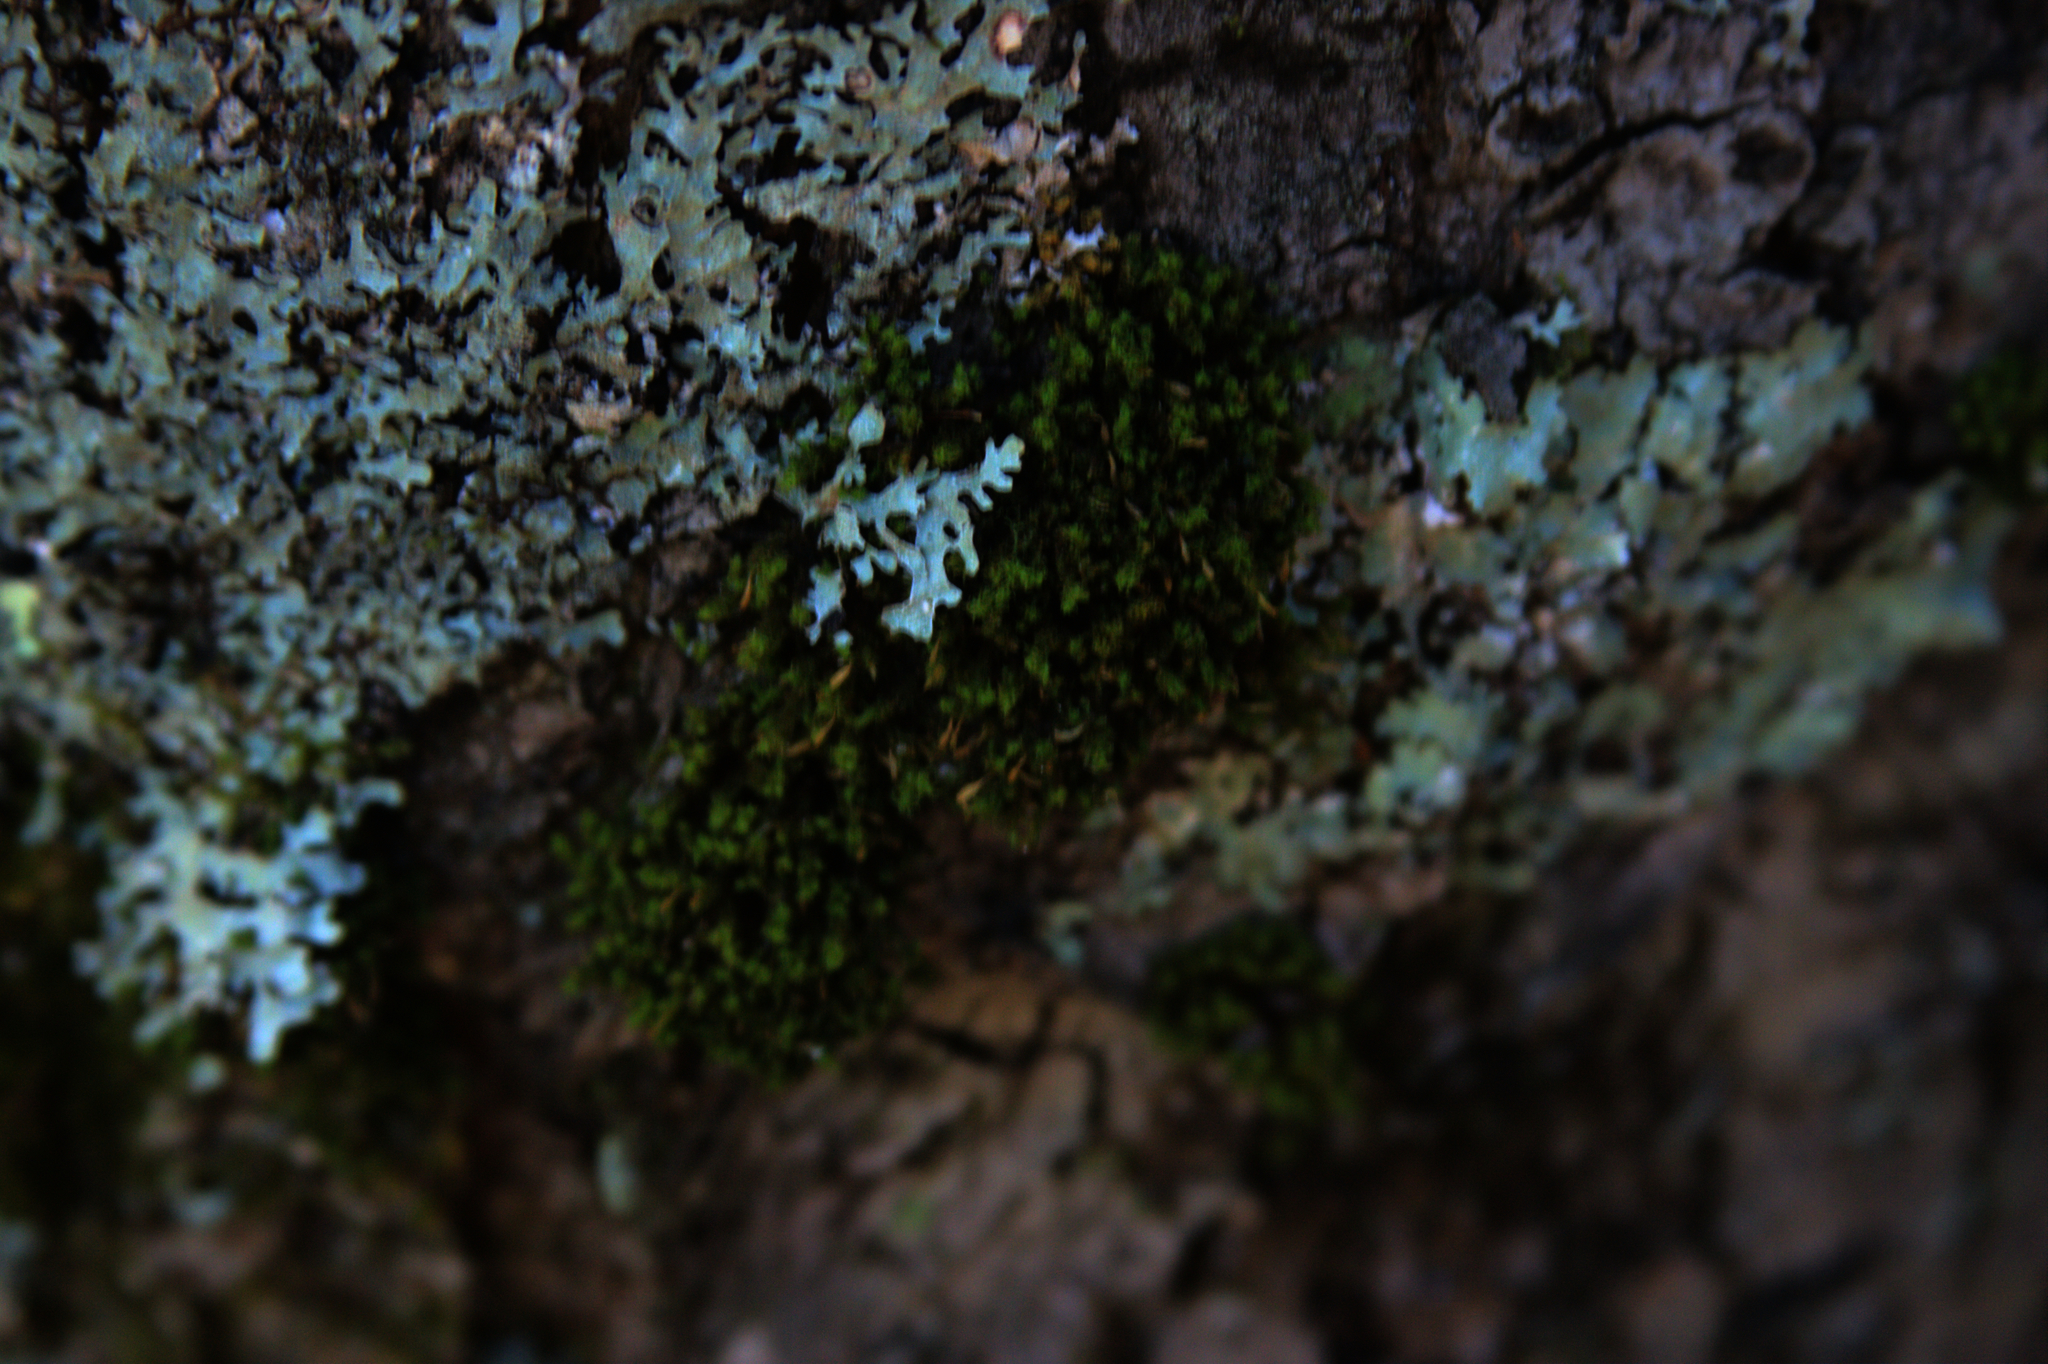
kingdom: Plantae
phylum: Bryophyta
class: Bryopsida
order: Orthotrichales
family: Orthotrichaceae
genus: Ulota
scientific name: Ulota crispa
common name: Crisped pincushion moss
